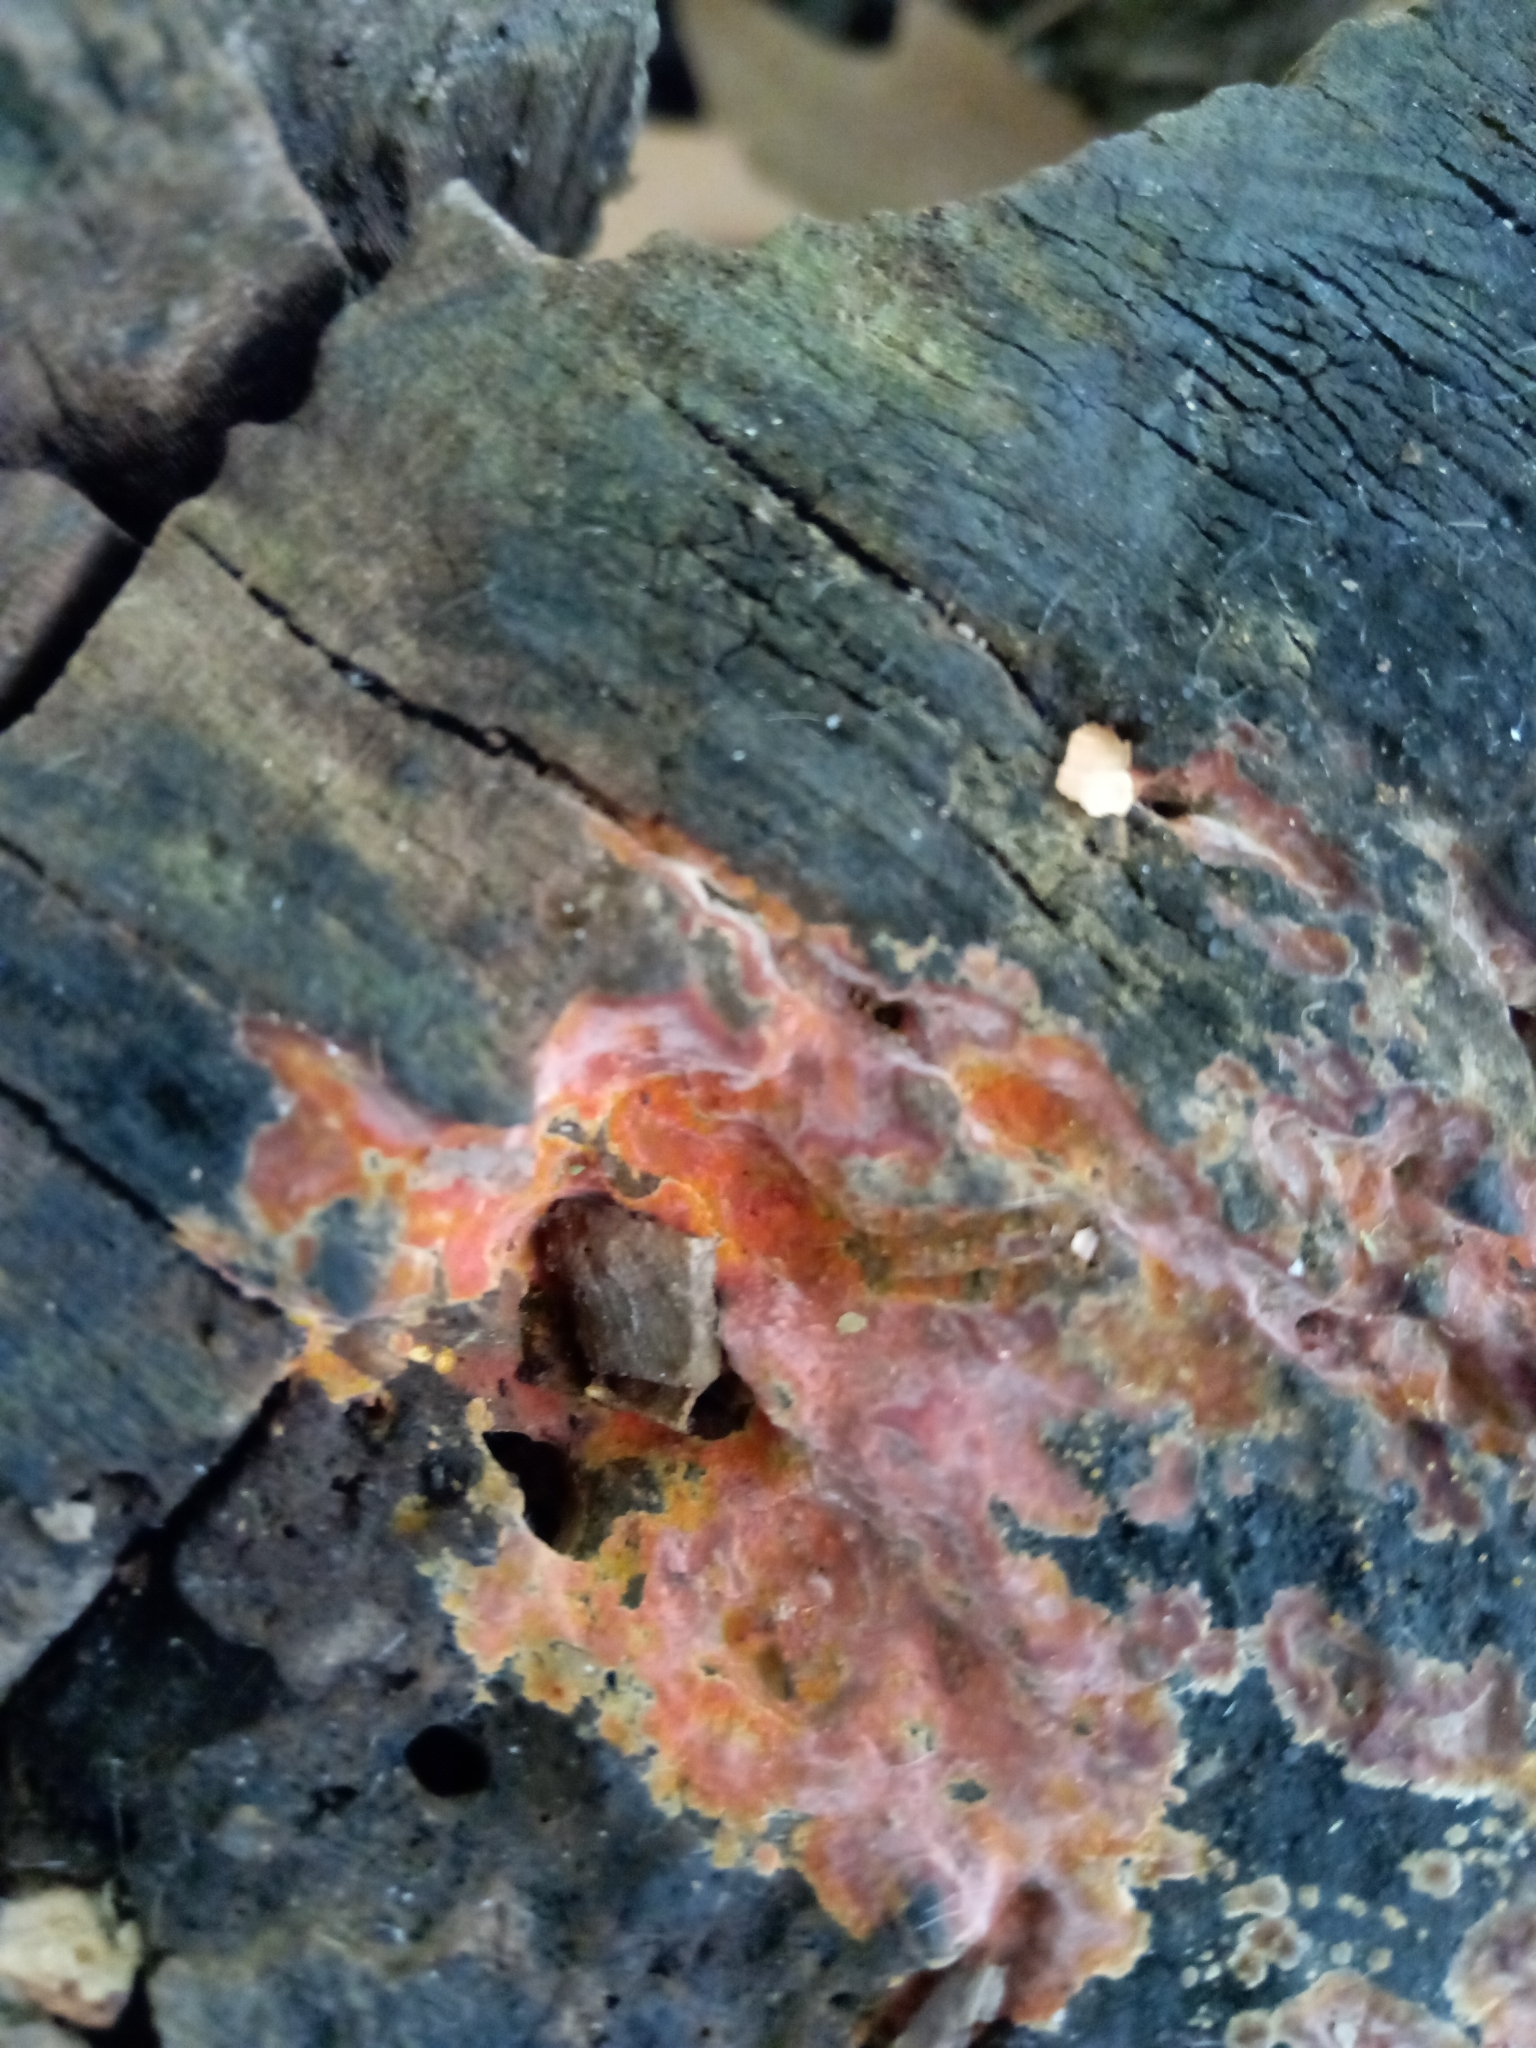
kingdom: Fungi
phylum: Basidiomycota
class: Agaricomycetes
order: Polyporales
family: Meruliaceae
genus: Phlebia
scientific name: Phlebia coccineofulva
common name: Scarlet waxcrust
